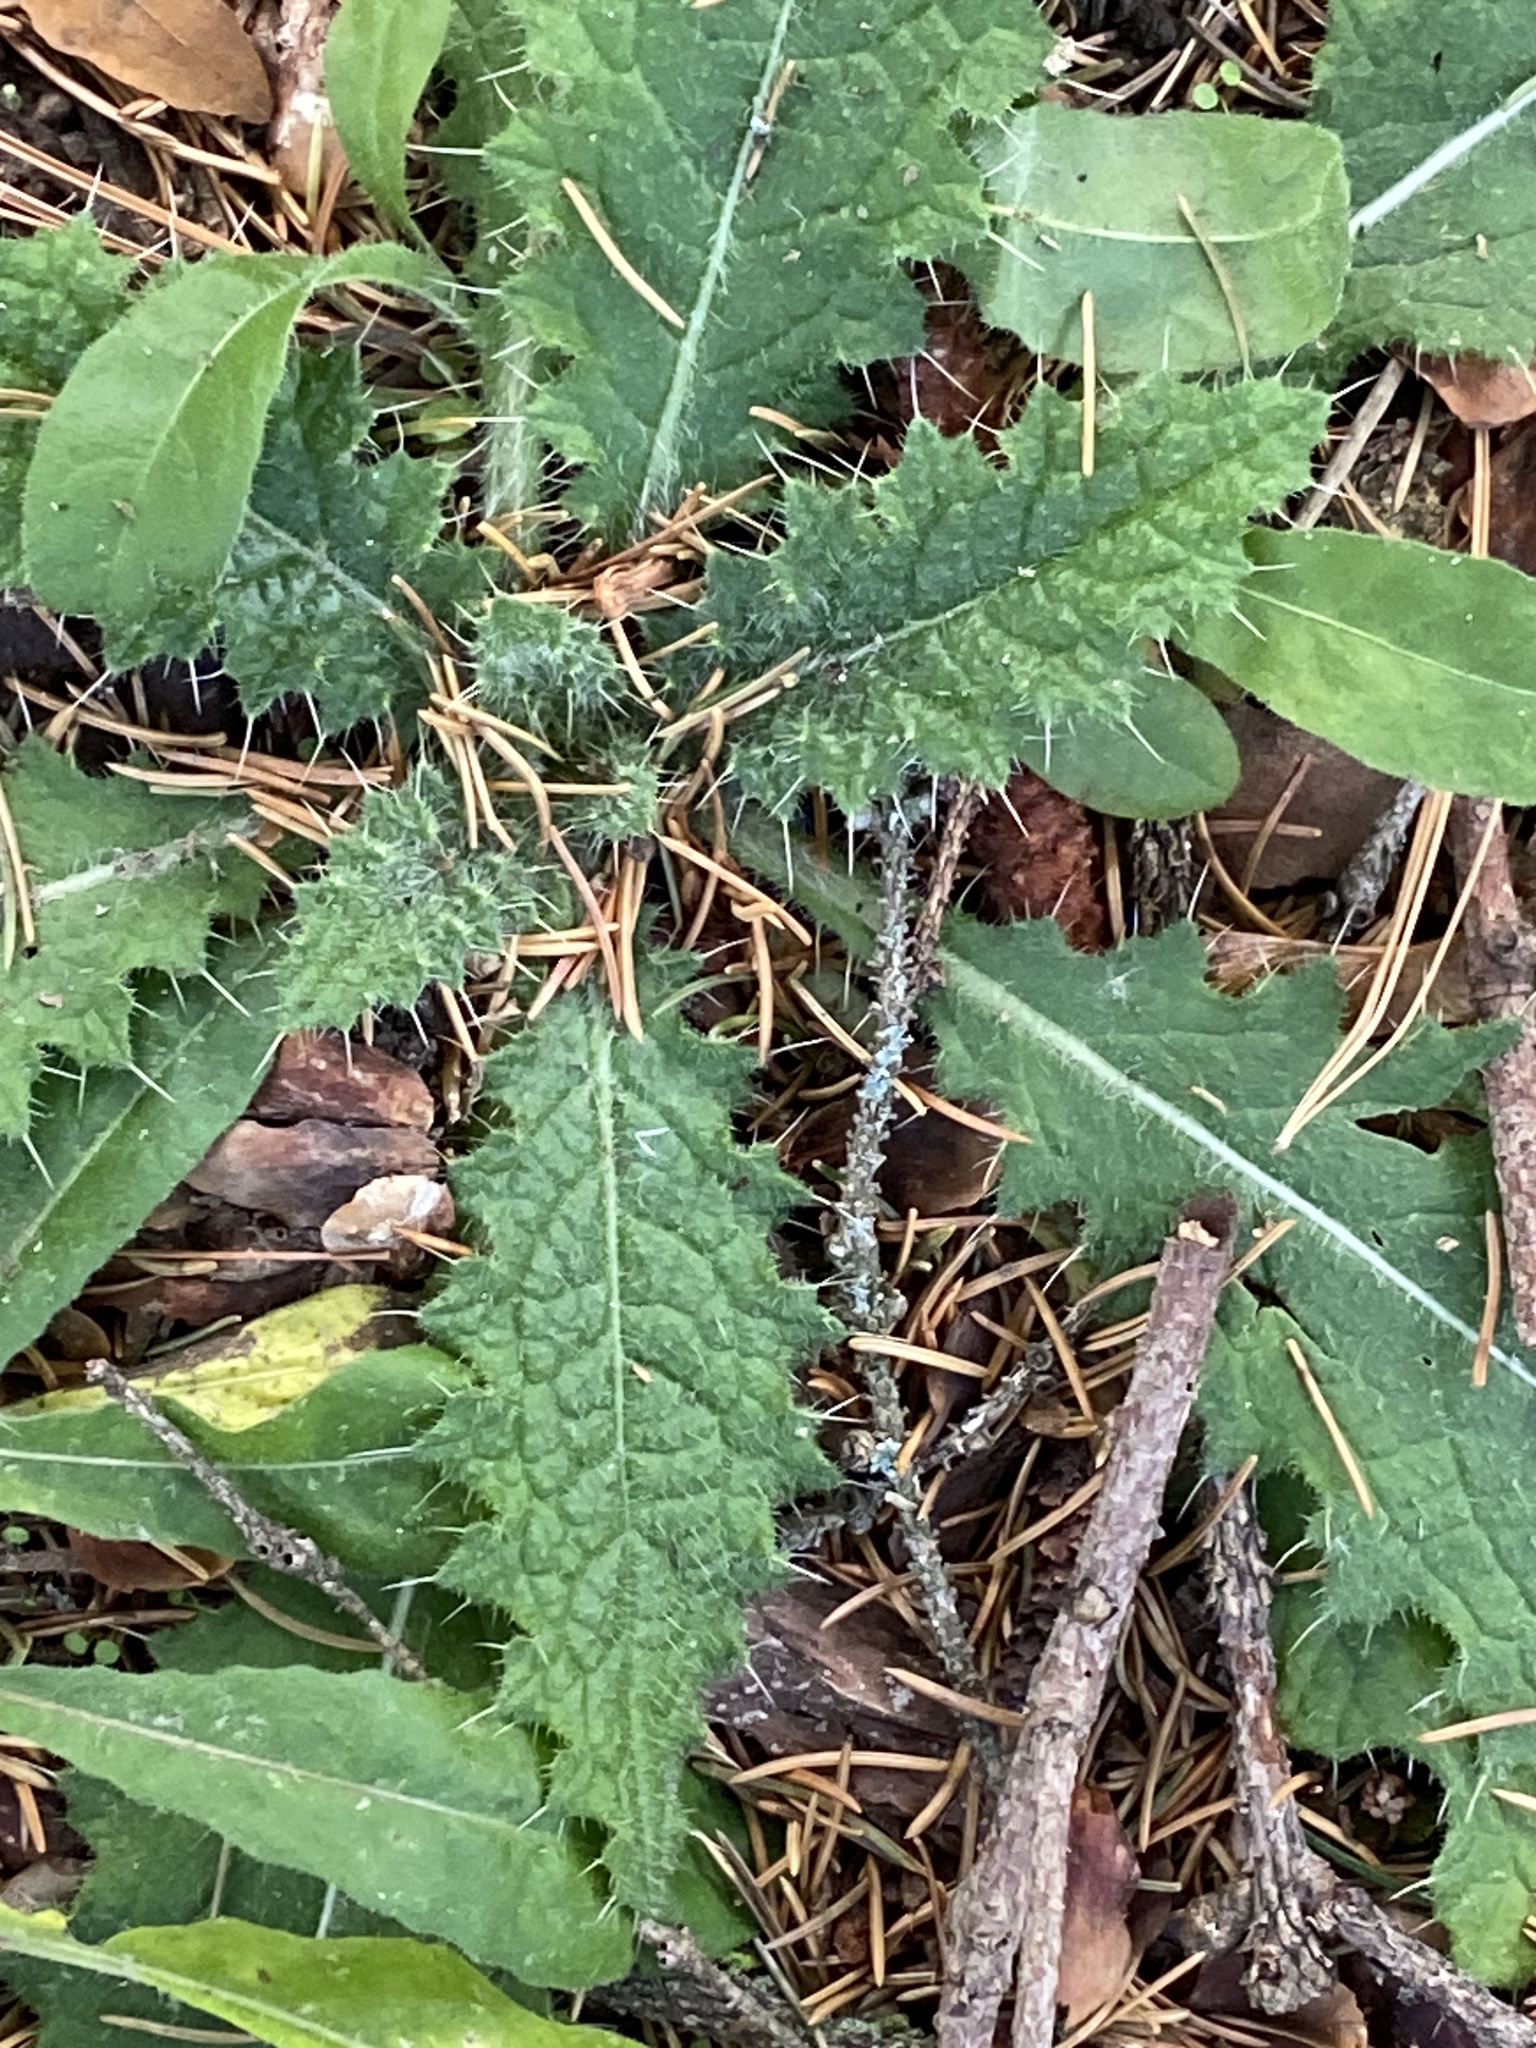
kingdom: Plantae
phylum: Tracheophyta
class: Magnoliopsida
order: Asterales
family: Asteraceae
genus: Cirsium
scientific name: Cirsium vulgare
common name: Bull thistle
